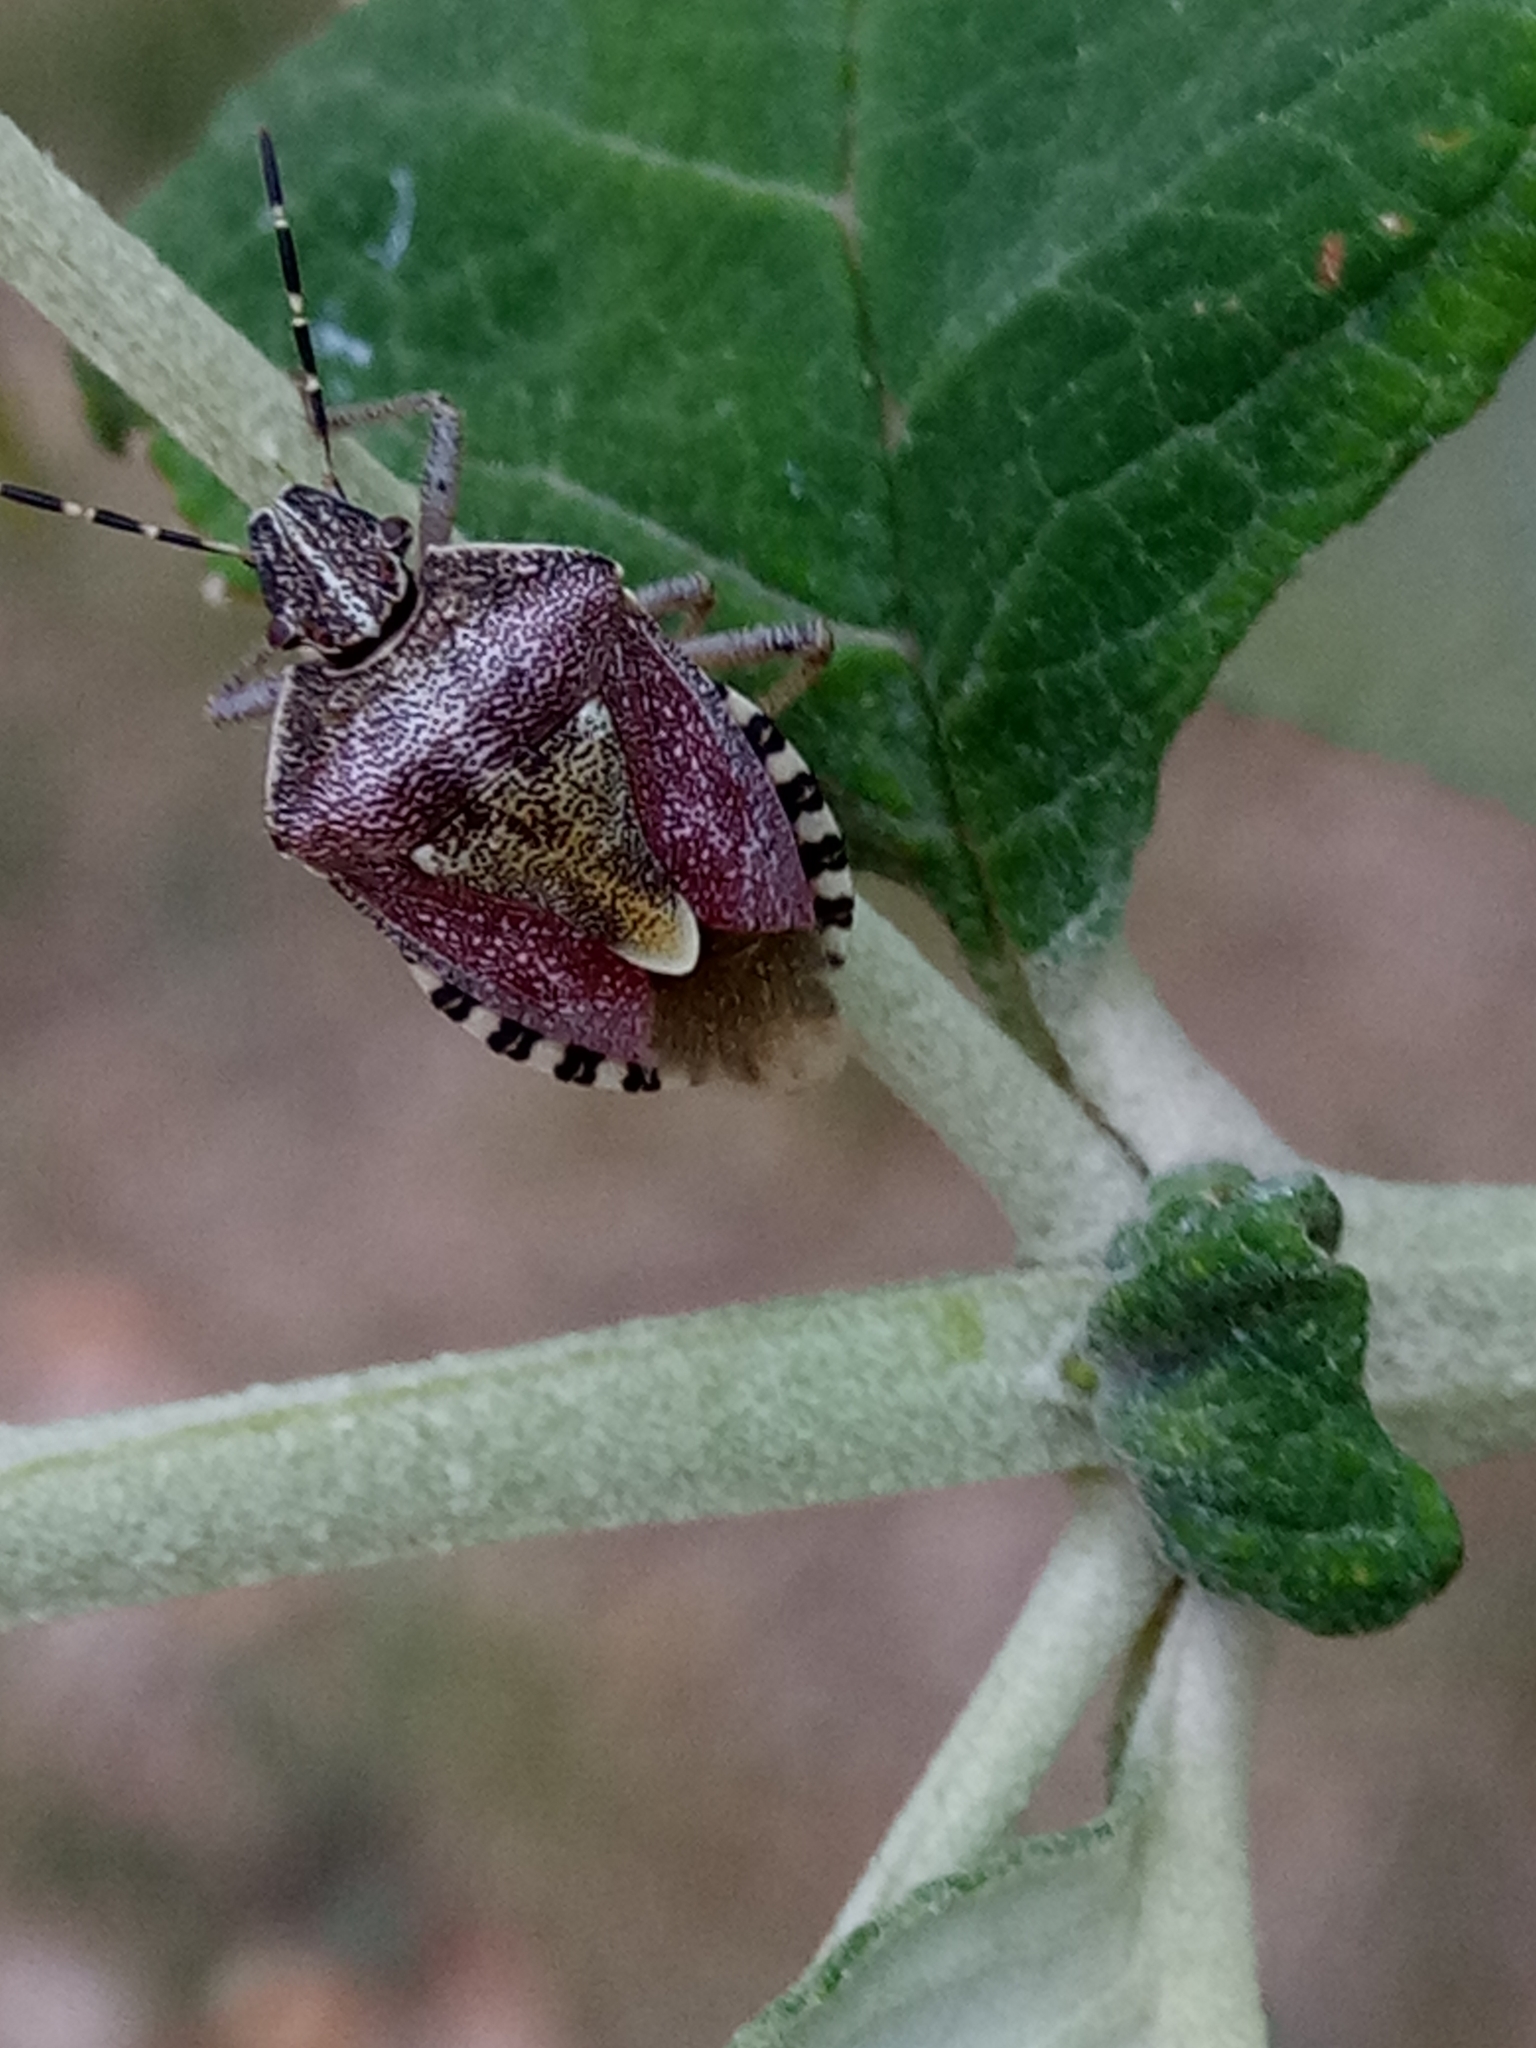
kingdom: Animalia
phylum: Arthropoda
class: Insecta
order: Hemiptera
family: Pentatomidae
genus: Dolycoris
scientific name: Dolycoris baccarum
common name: Sloe bug
